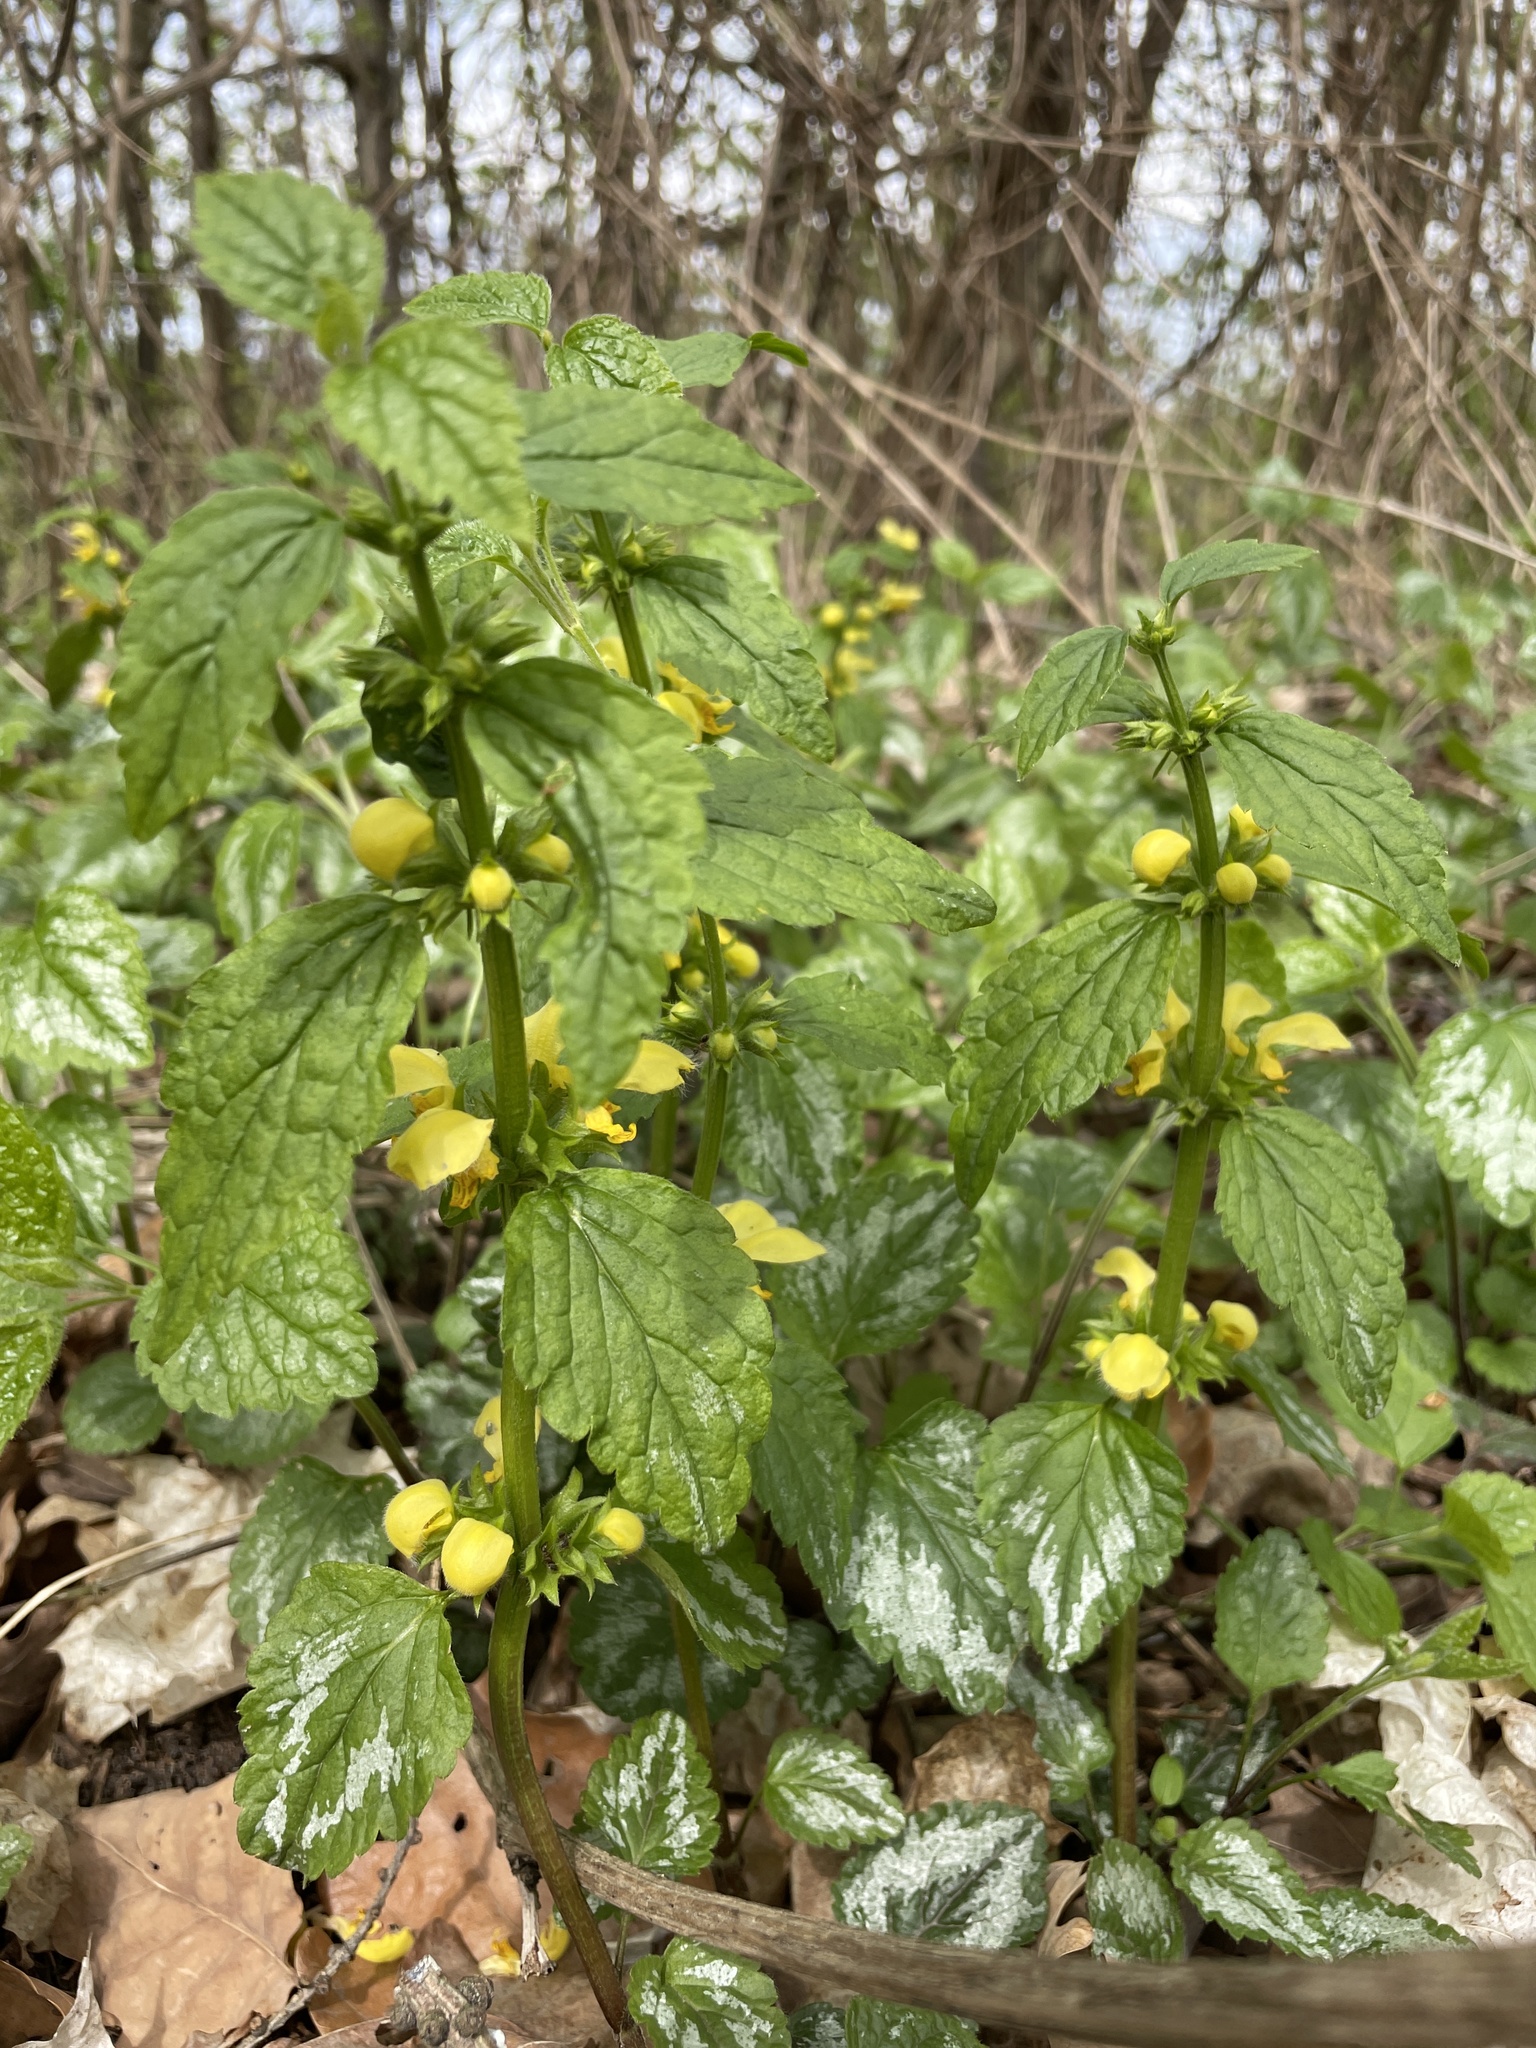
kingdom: Plantae
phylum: Tracheophyta
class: Magnoliopsida
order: Lamiales
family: Lamiaceae
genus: Lamium
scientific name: Lamium galeobdolon
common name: Yellow archangel
